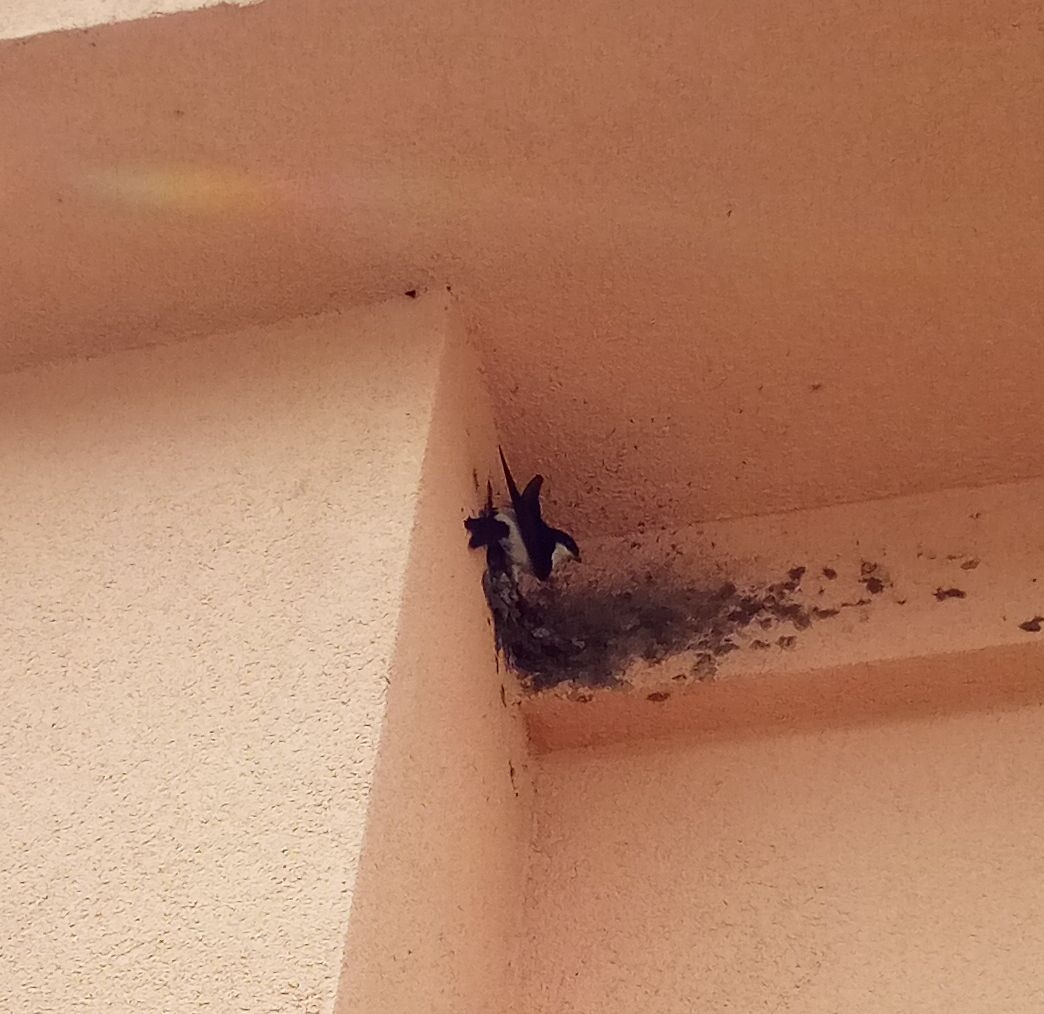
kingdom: Animalia
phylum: Chordata
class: Aves
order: Passeriformes
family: Hirundinidae
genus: Delichon
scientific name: Delichon urbicum
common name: Common house martin
